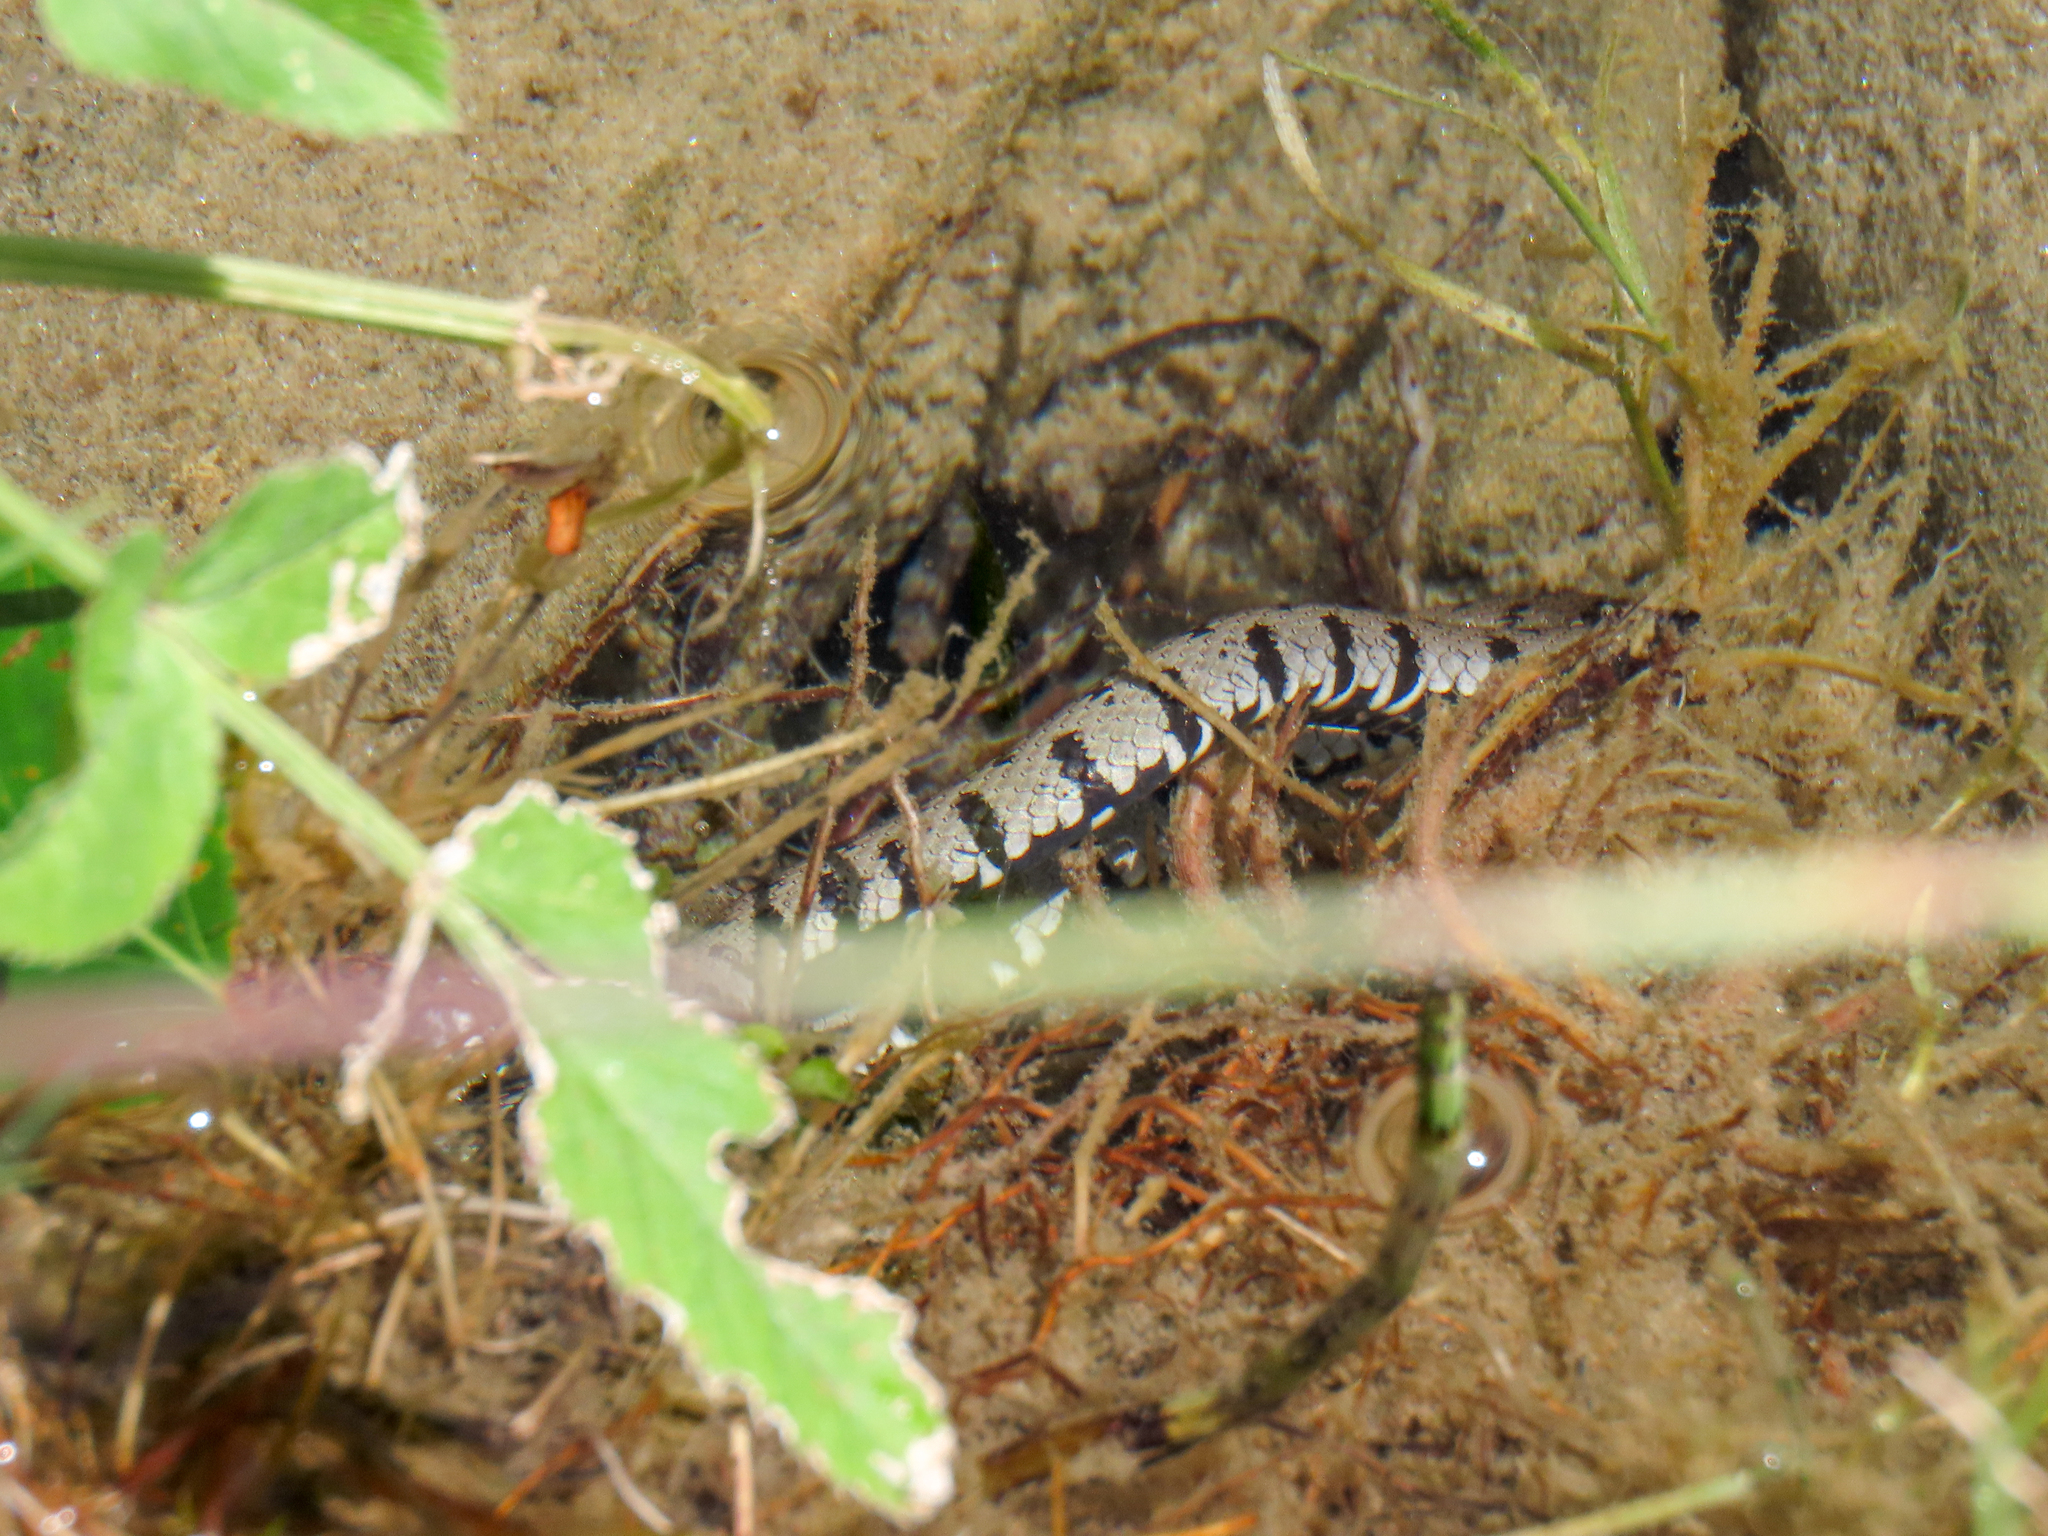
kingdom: Animalia
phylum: Chordata
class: Squamata
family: Colubridae
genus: Natrix
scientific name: Natrix helvetica
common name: Banded grass snake
